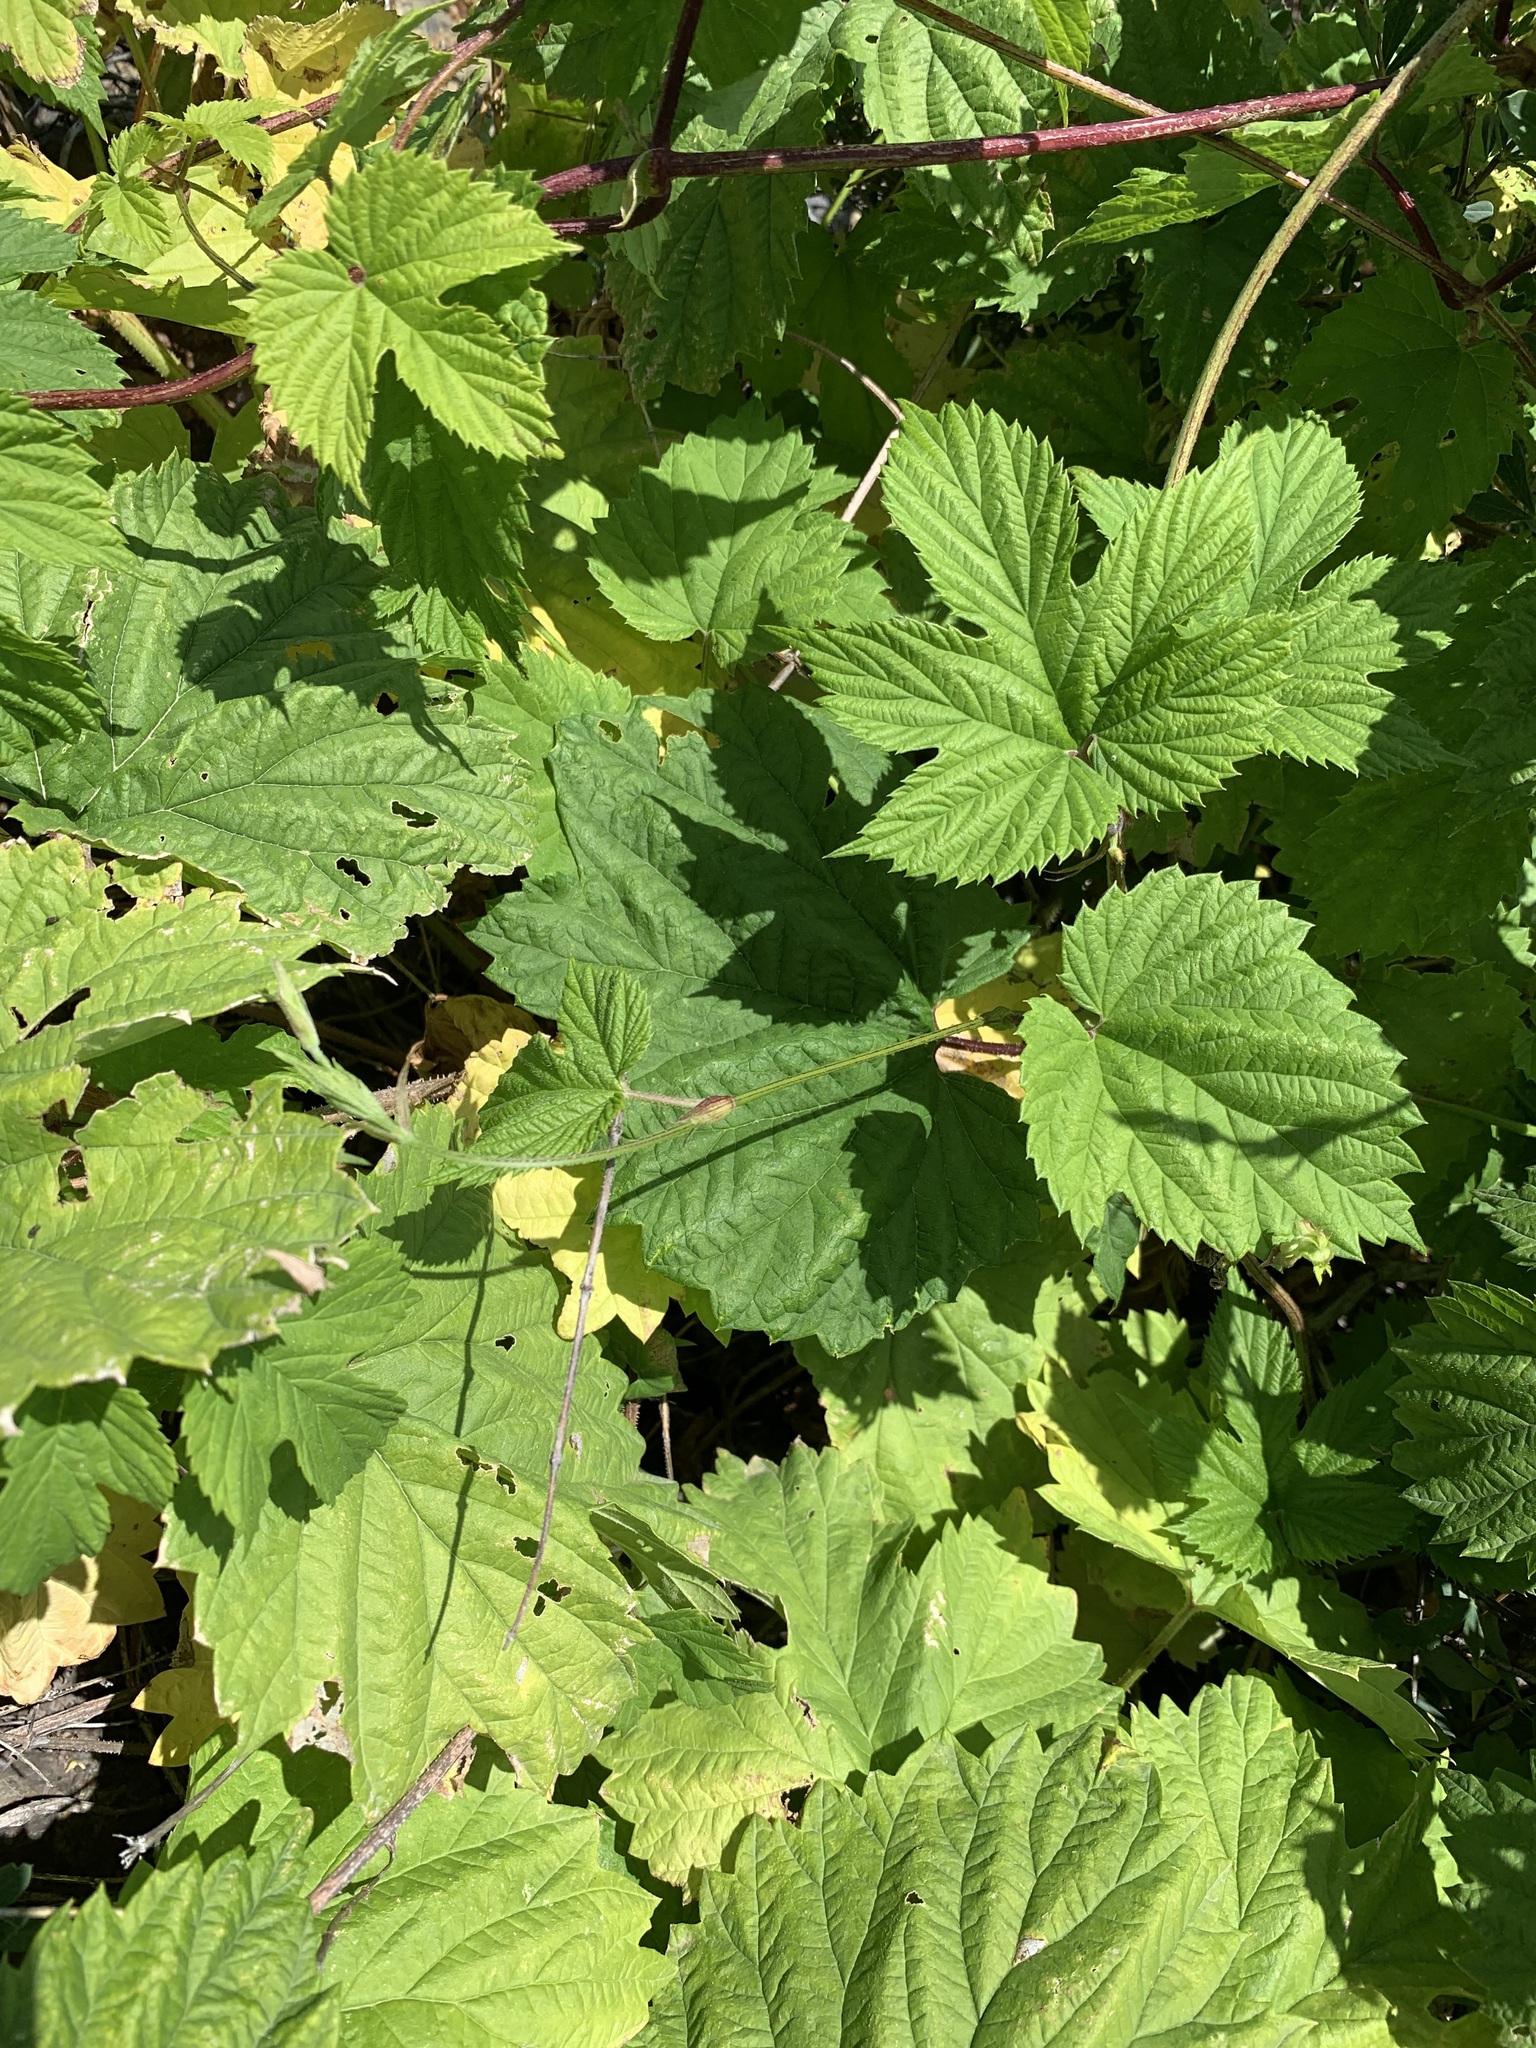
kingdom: Plantae
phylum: Tracheophyta
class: Magnoliopsida
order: Rosales
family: Cannabaceae
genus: Humulus
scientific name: Humulus lupulus
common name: Hop
